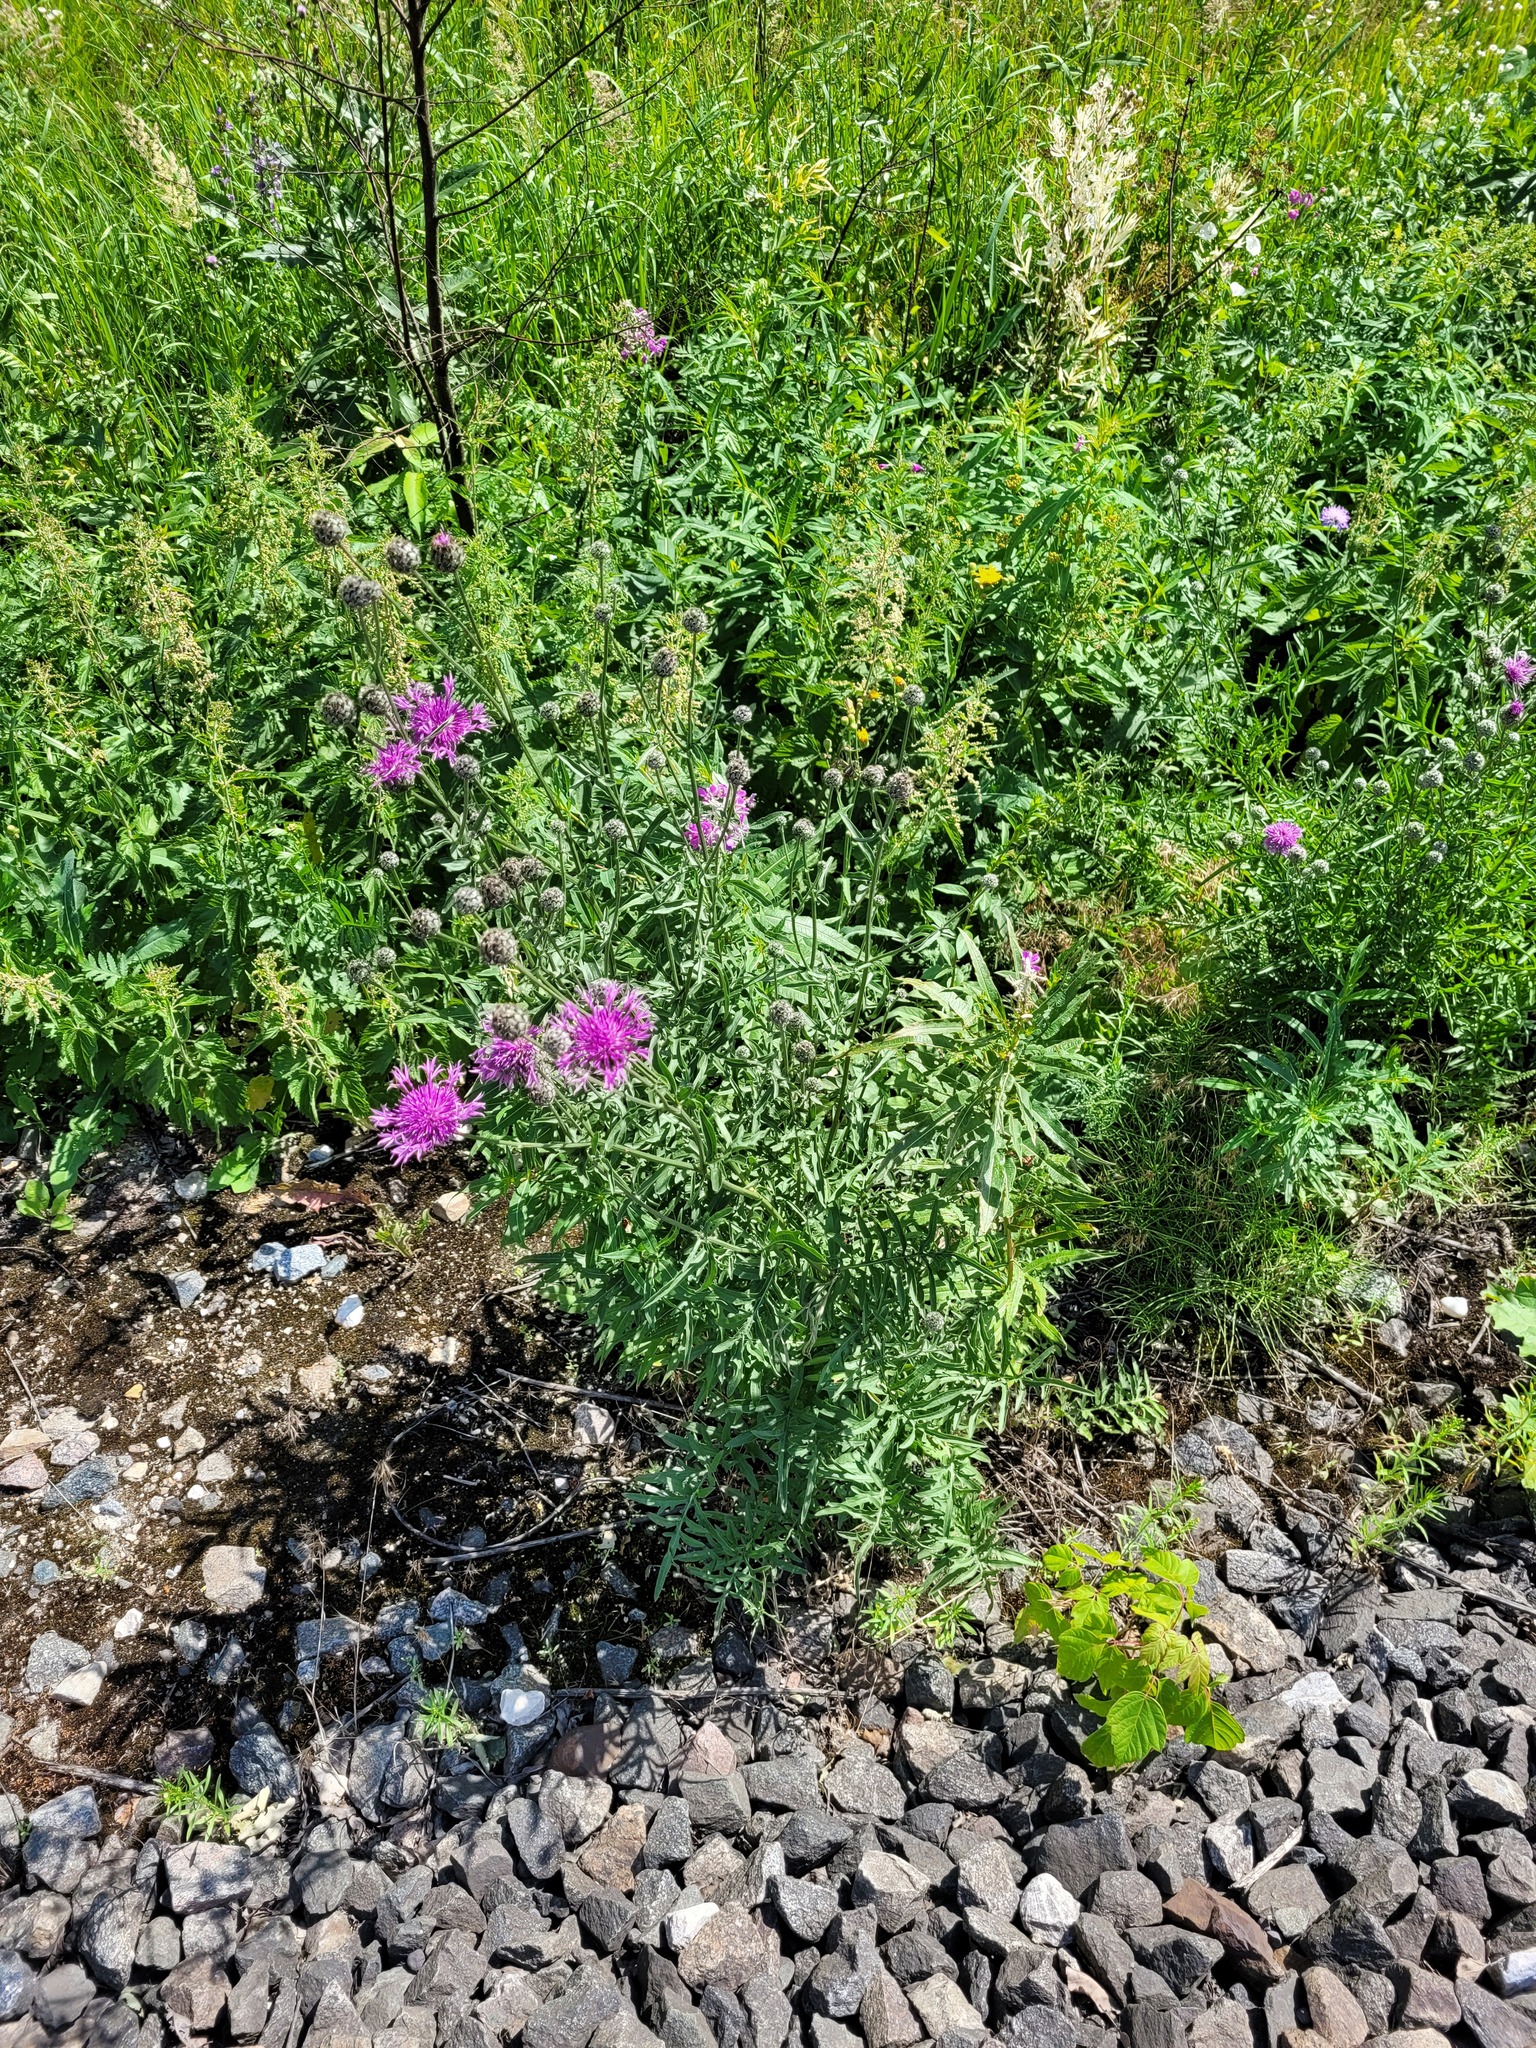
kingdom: Plantae
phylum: Tracheophyta
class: Magnoliopsida
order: Asterales
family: Asteraceae
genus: Centaurea
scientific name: Centaurea scabiosa
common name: Greater knapweed
